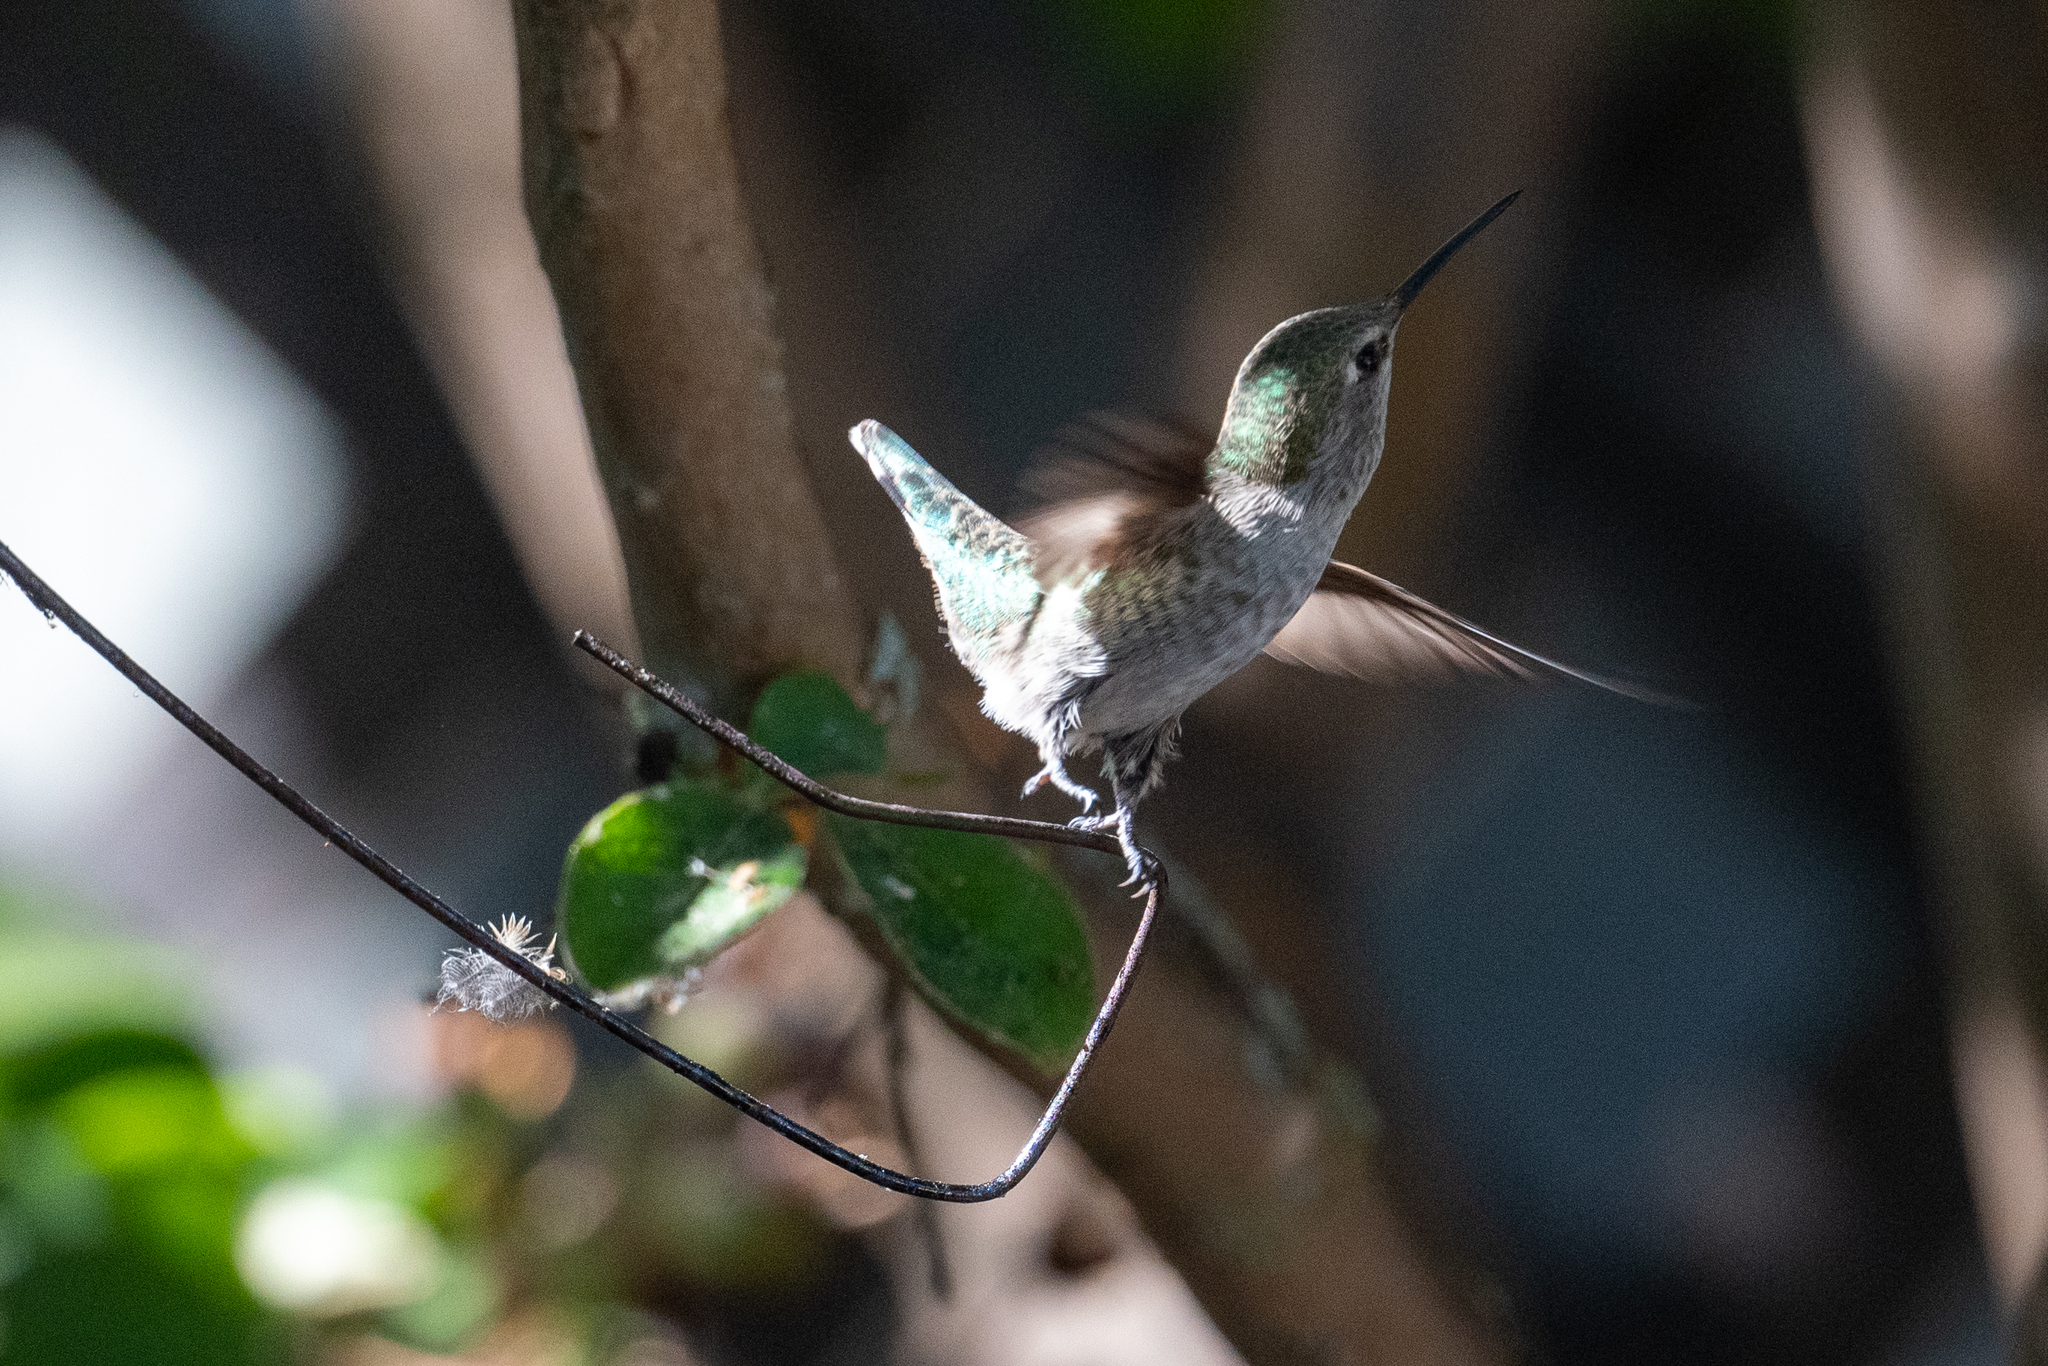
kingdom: Animalia
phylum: Chordata
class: Aves
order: Apodiformes
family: Trochilidae
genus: Calypte
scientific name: Calypte anna
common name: Anna's hummingbird
